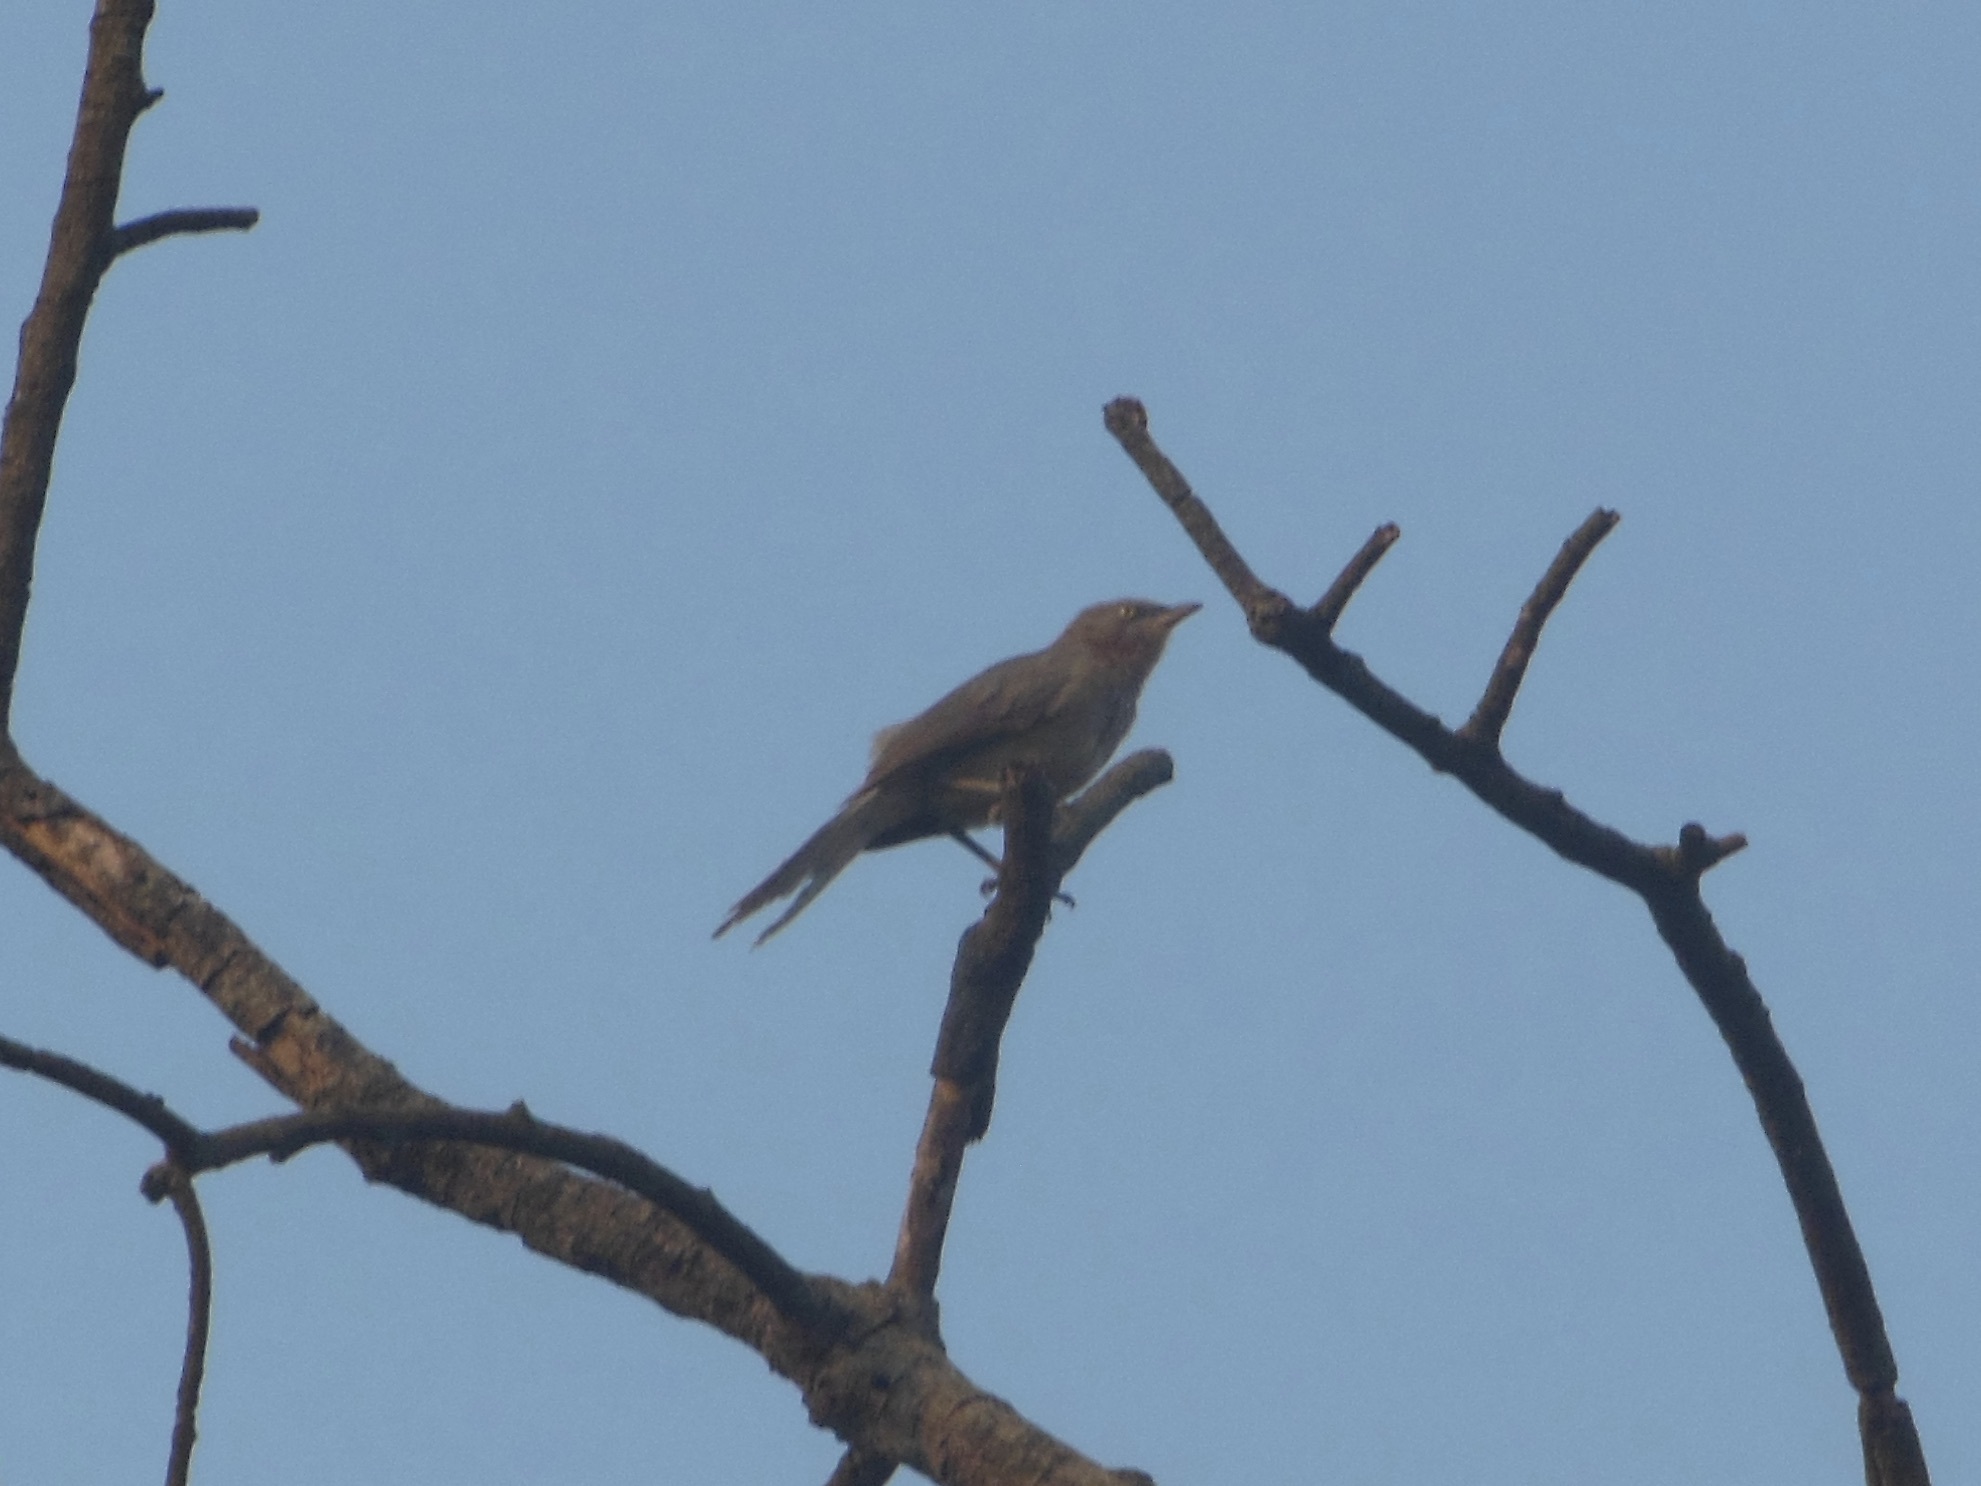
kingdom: Animalia
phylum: Chordata
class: Aves
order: Passeriformes
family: Leiothrichidae
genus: Turdoides
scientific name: Turdoides malcolmi
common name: Large grey babbler
